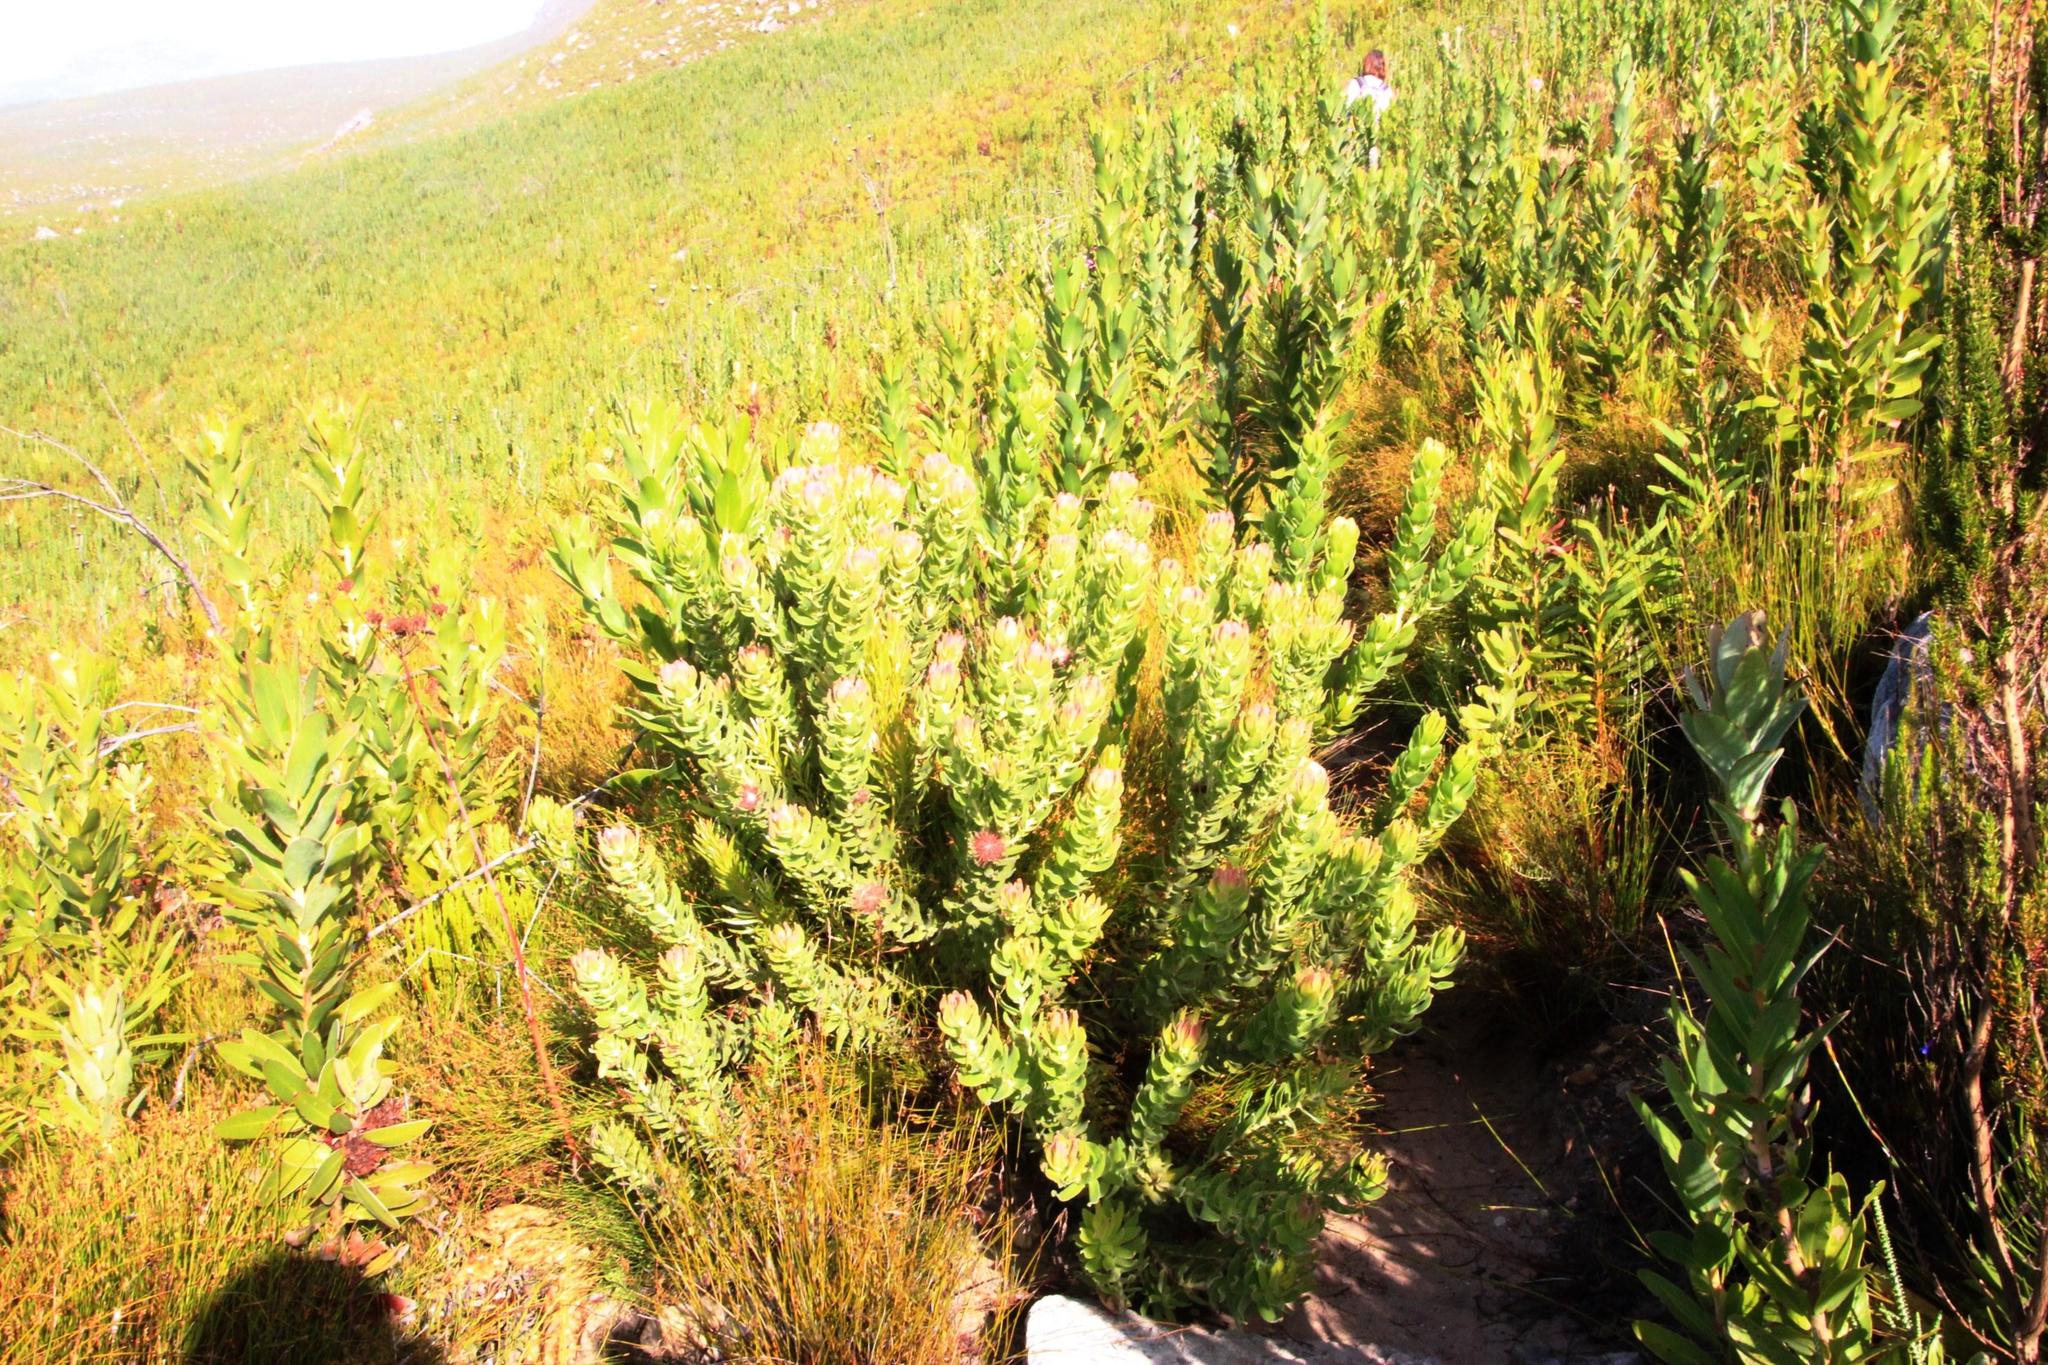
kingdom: Plantae
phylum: Tracheophyta
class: Magnoliopsida
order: Proteales
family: Proteaceae
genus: Leucospermum
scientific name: Leucospermum oleifolium
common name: Matches
